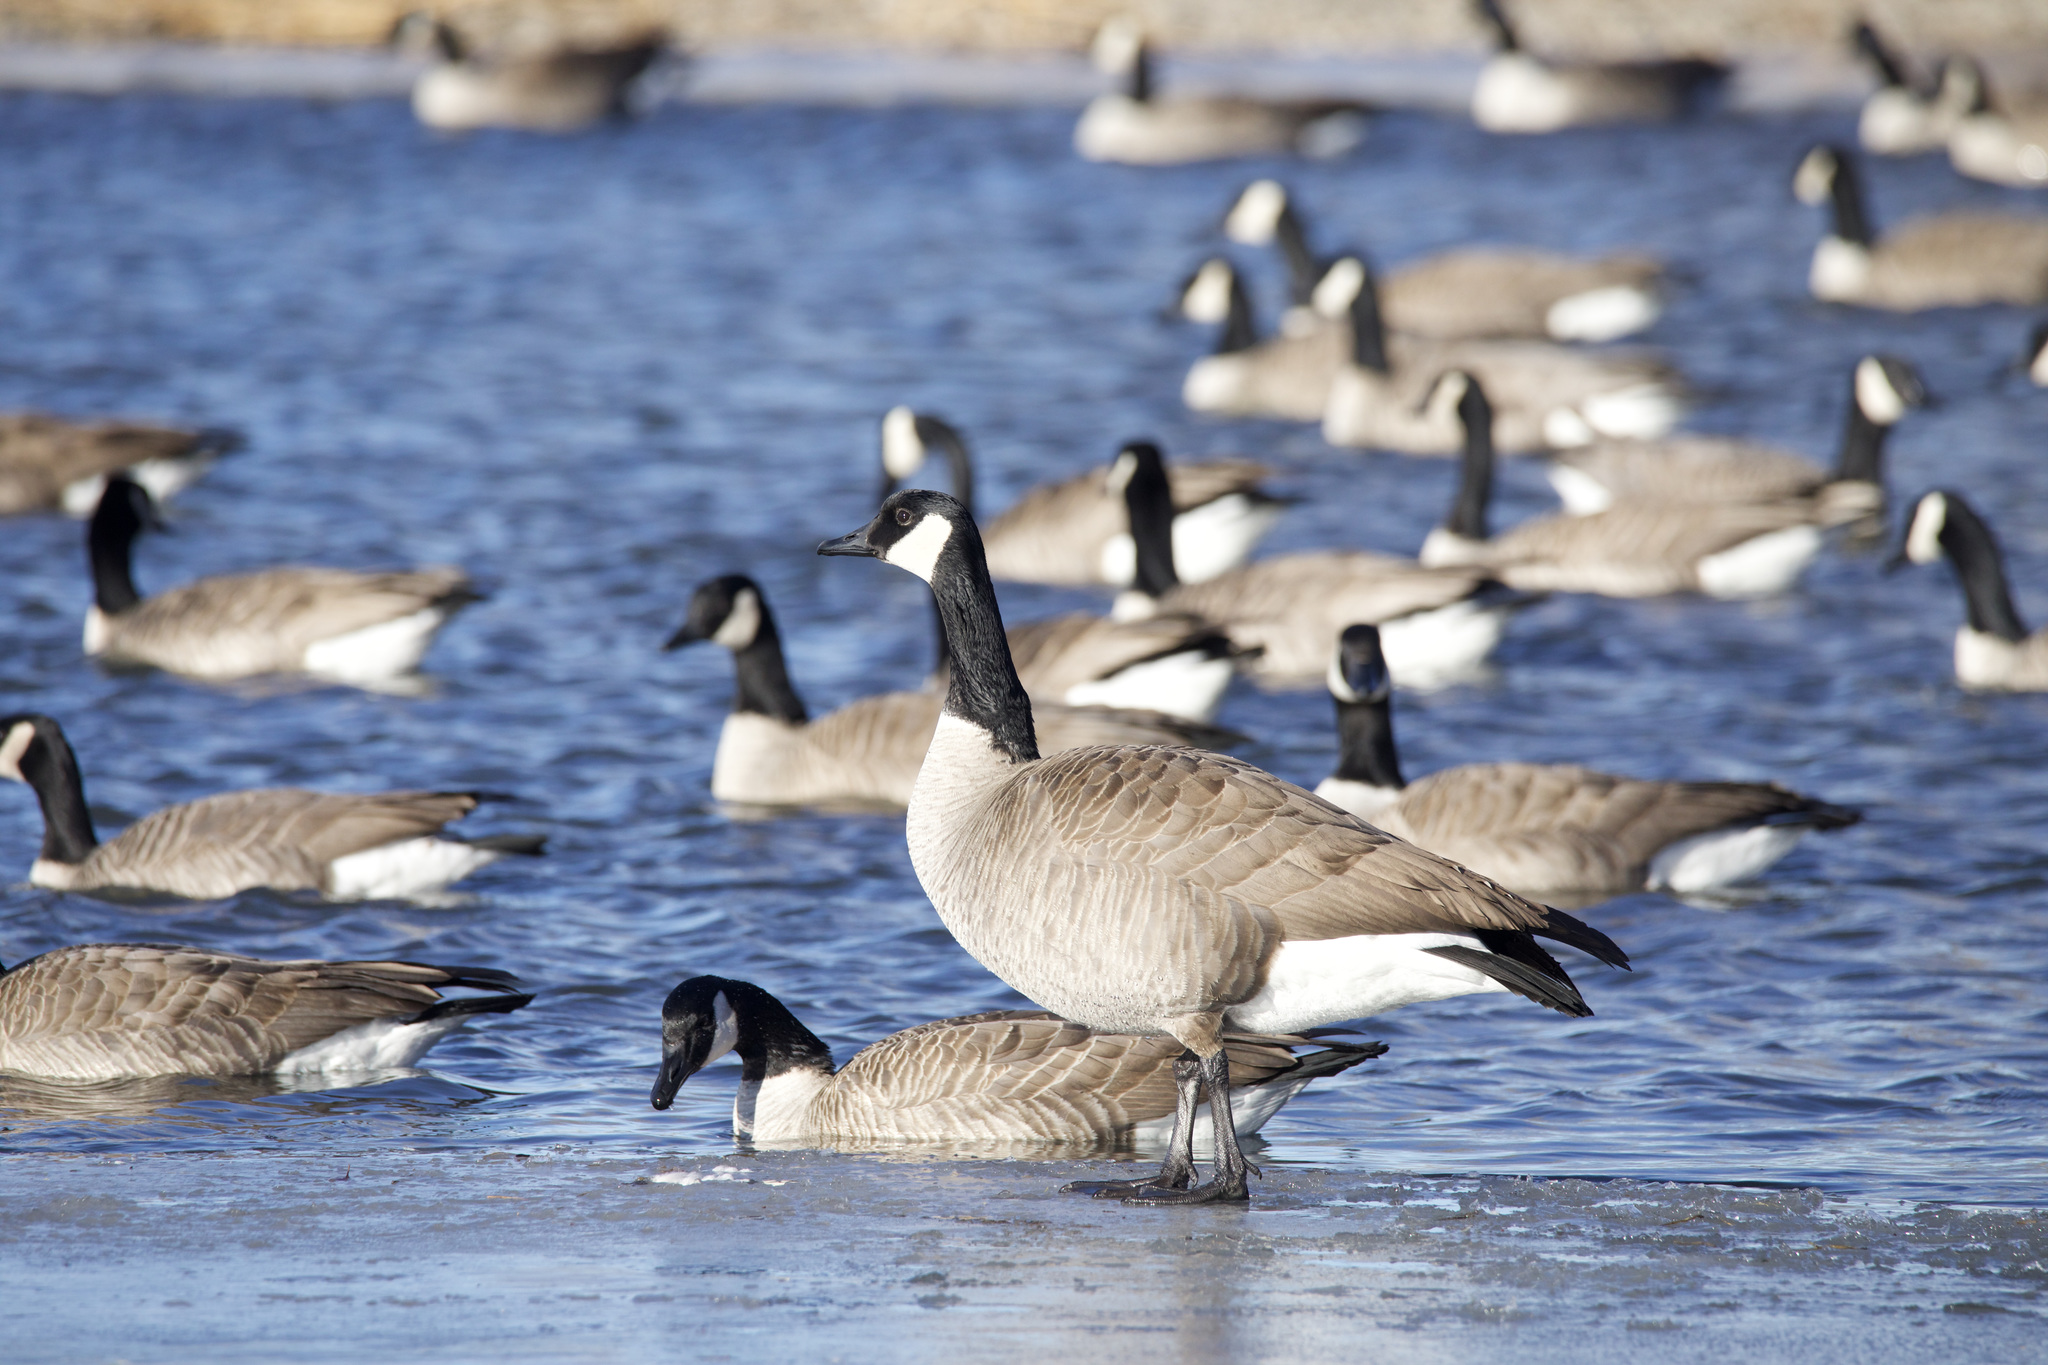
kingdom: Animalia
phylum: Chordata
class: Aves
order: Anseriformes
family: Anatidae
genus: Branta
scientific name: Branta canadensis
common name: Canada goose
